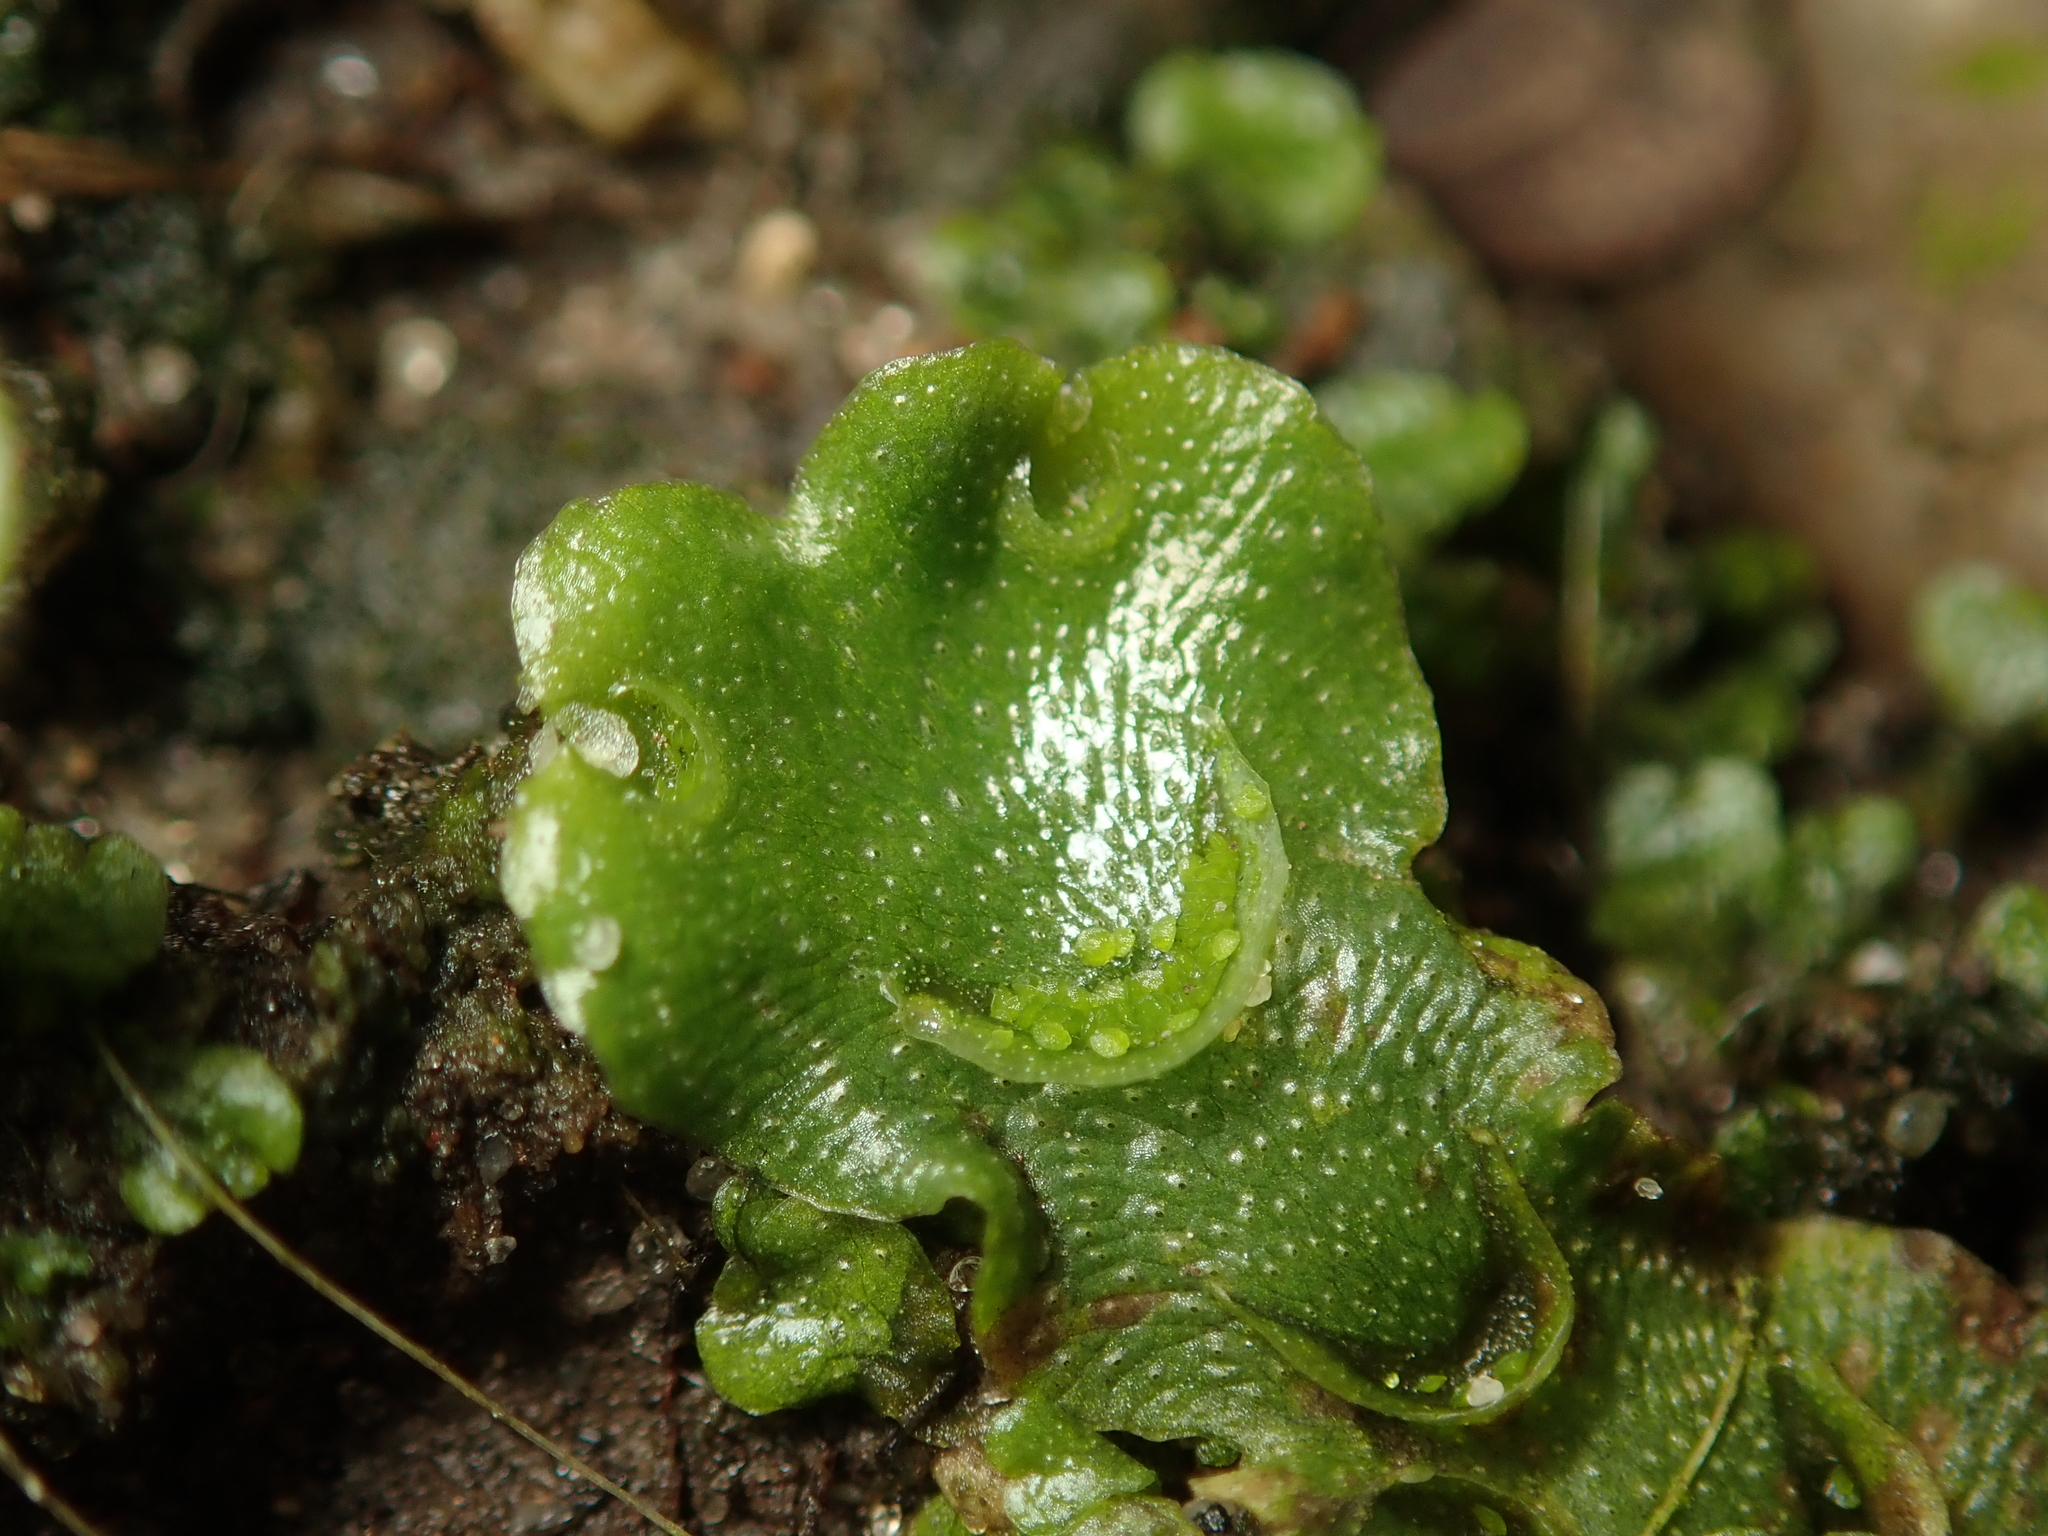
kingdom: Plantae
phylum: Marchantiophyta
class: Marchantiopsida
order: Lunulariales
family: Lunulariaceae
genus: Lunularia
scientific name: Lunularia cruciata
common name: Crescent-cup liverwort
